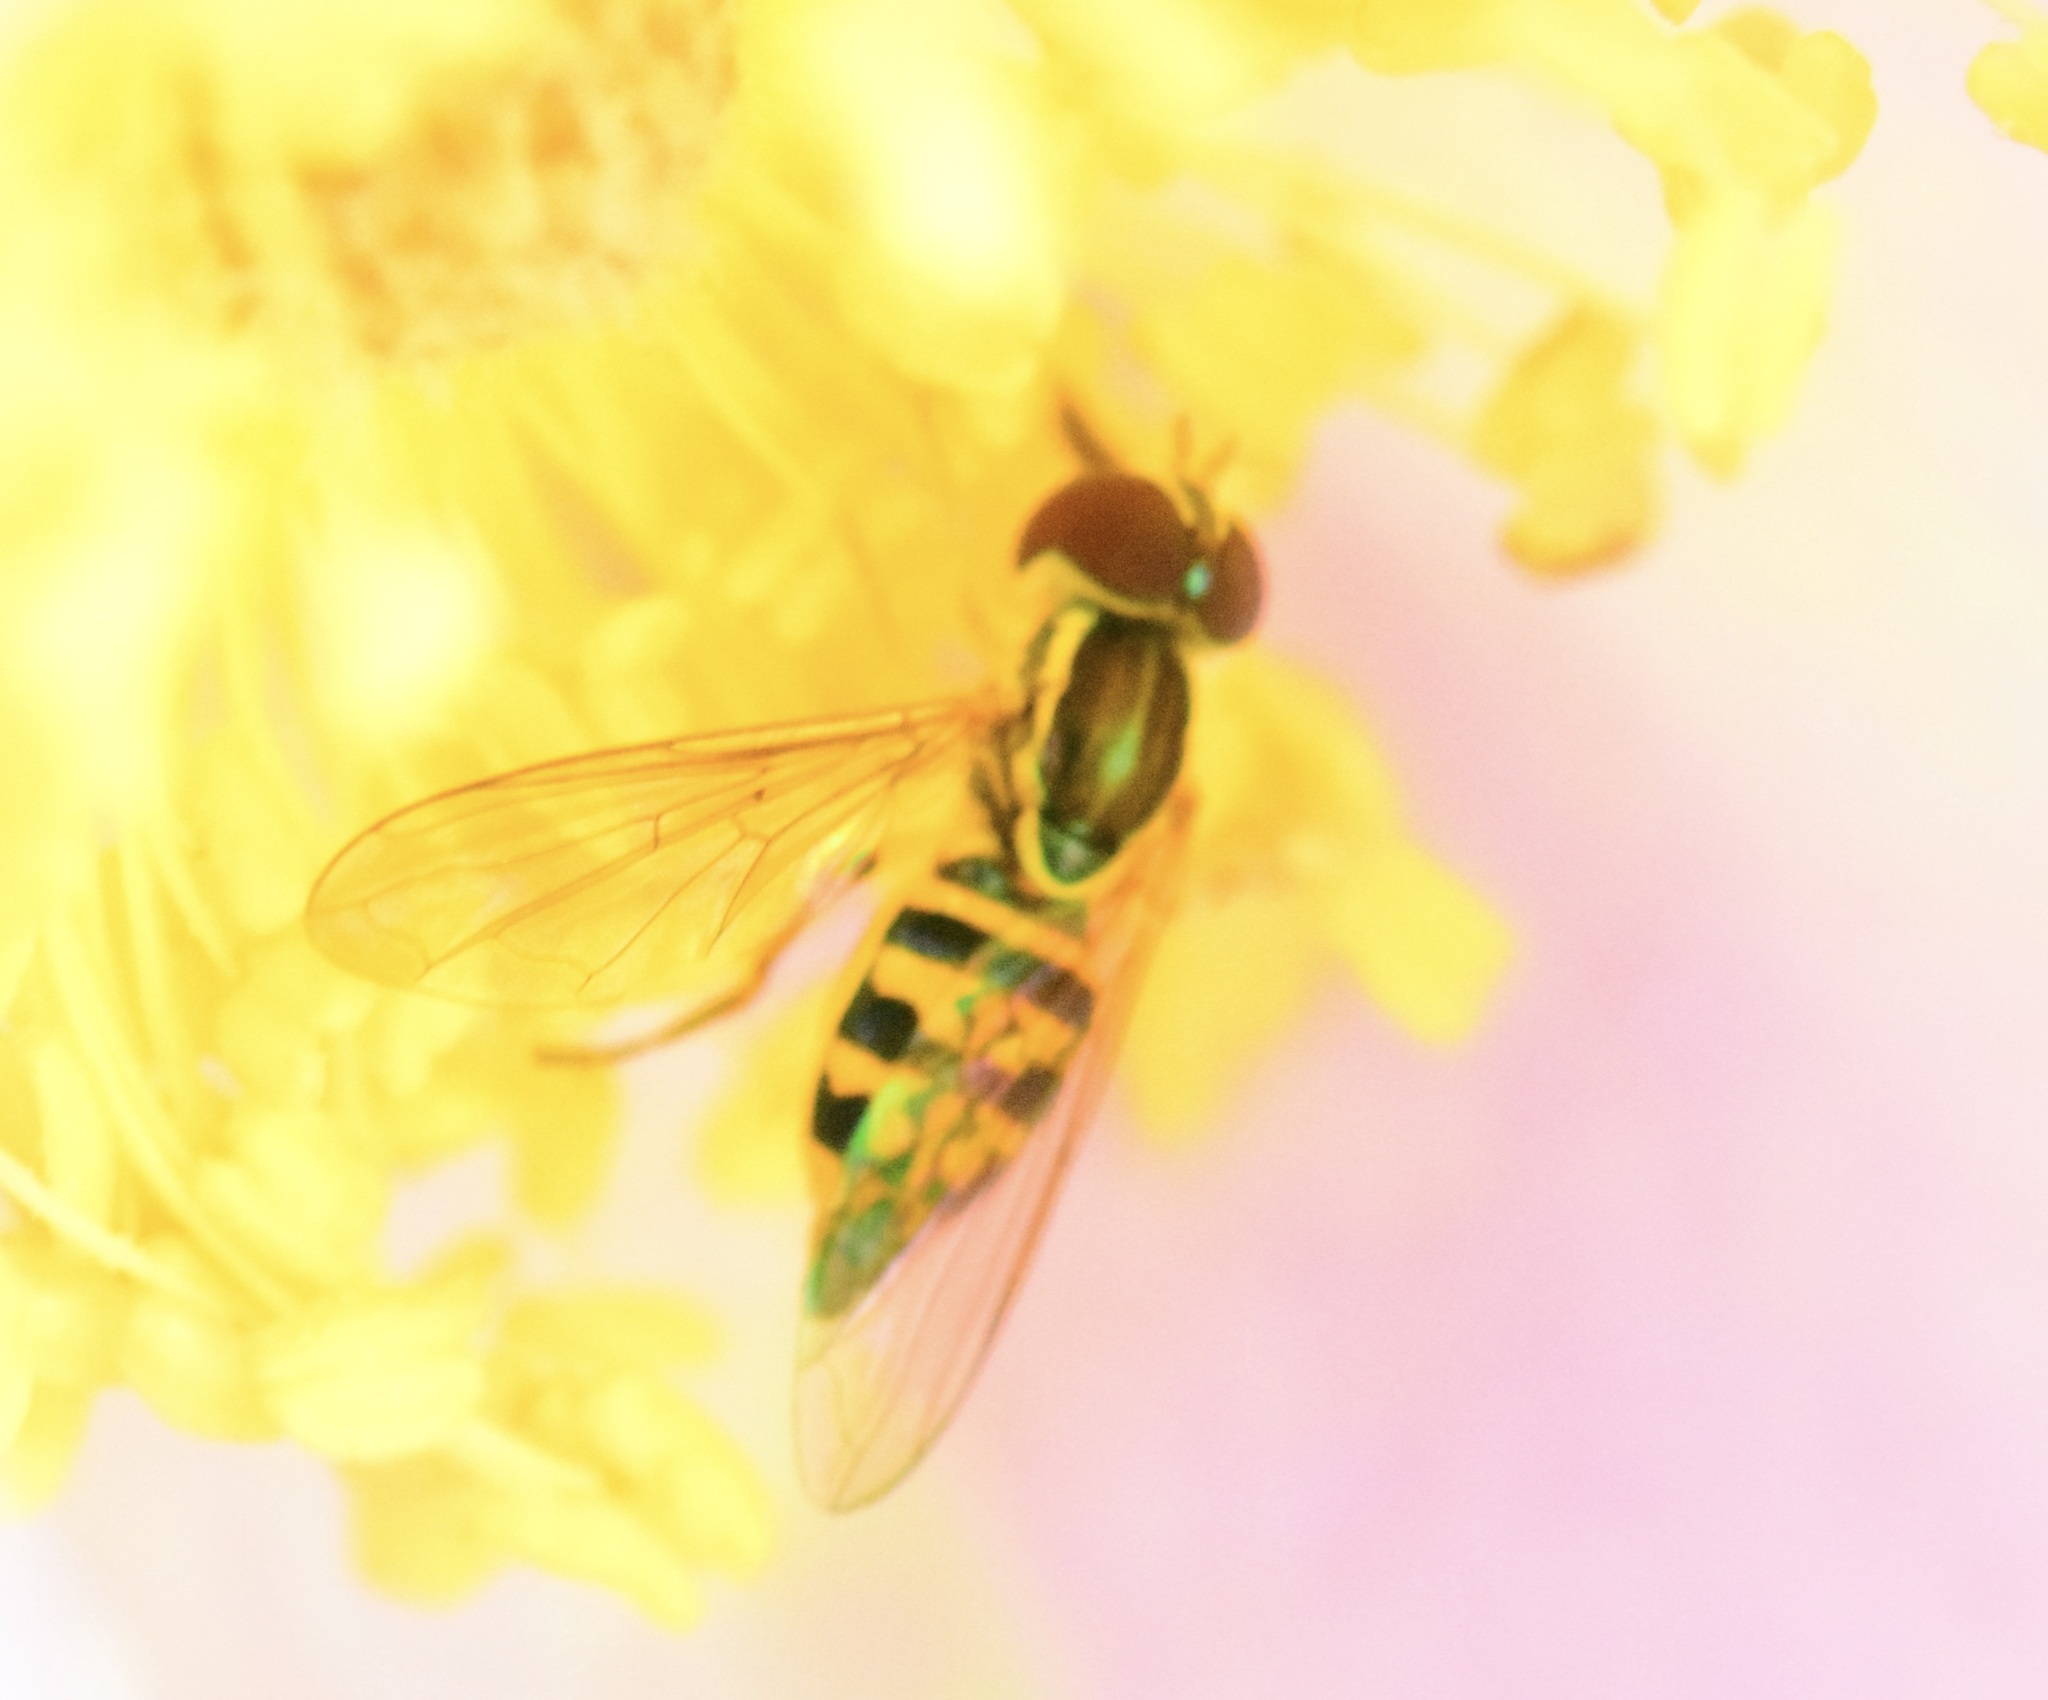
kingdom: Animalia
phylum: Arthropoda
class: Insecta
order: Diptera
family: Syrphidae
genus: Toxomerus
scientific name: Toxomerus geminatus
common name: Eastern calligrapher
